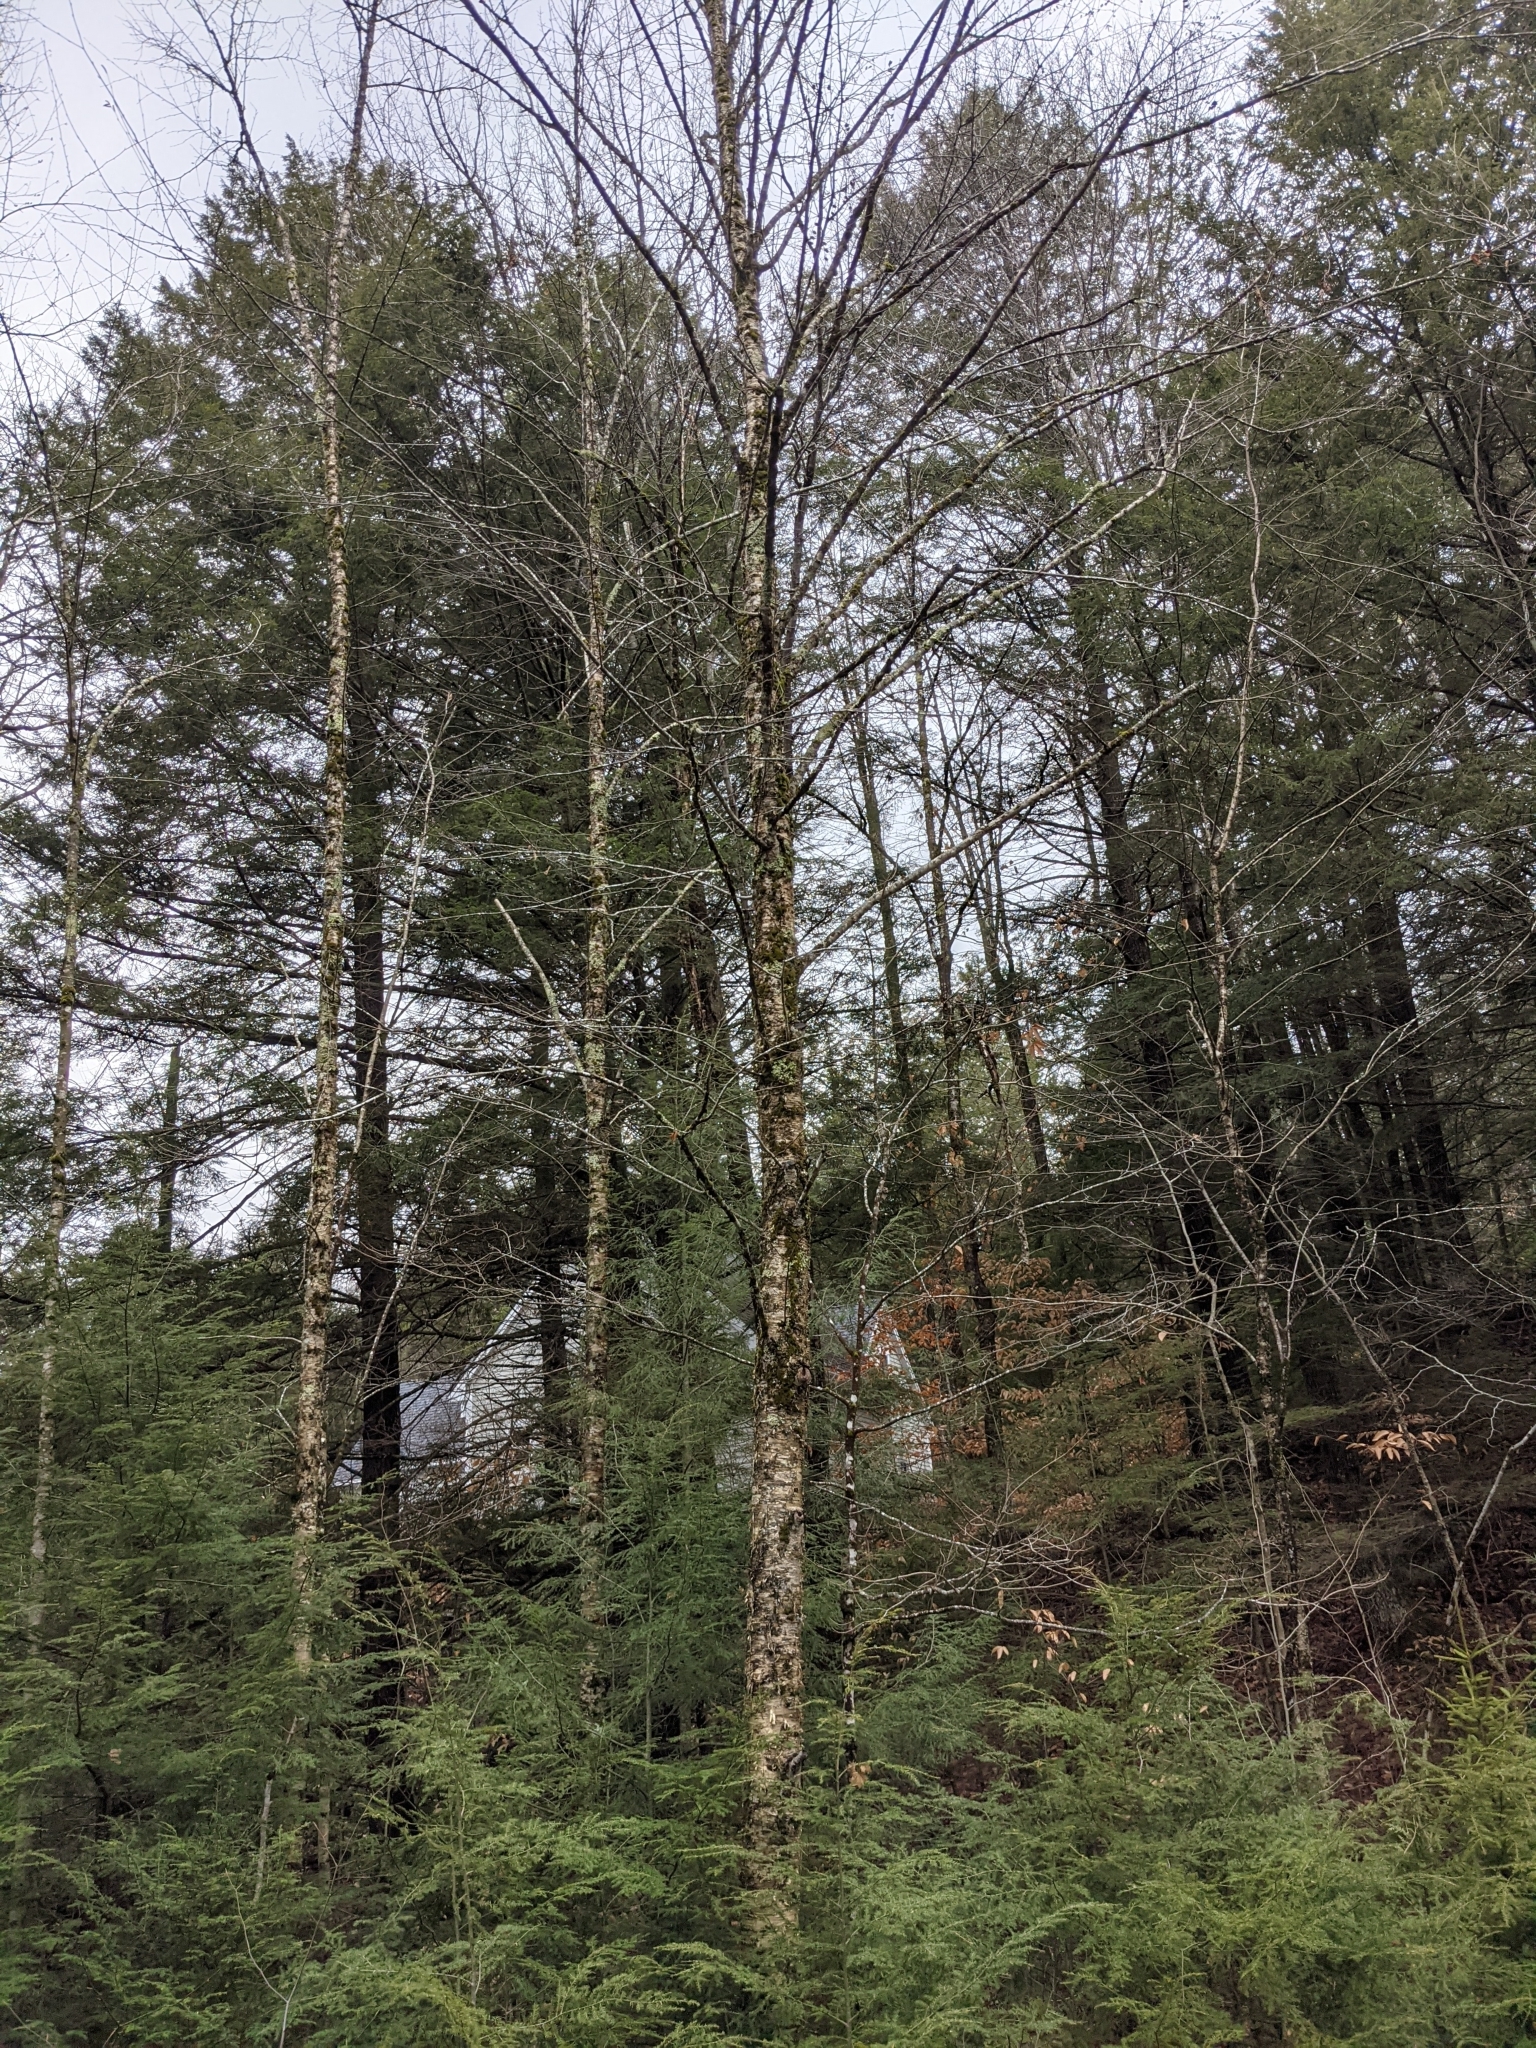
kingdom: Plantae
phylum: Tracheophyta
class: Magnoliopsida
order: Fagales
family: Betulaceae
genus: Betula
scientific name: Betula alleghaniensis
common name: Yellow birch
